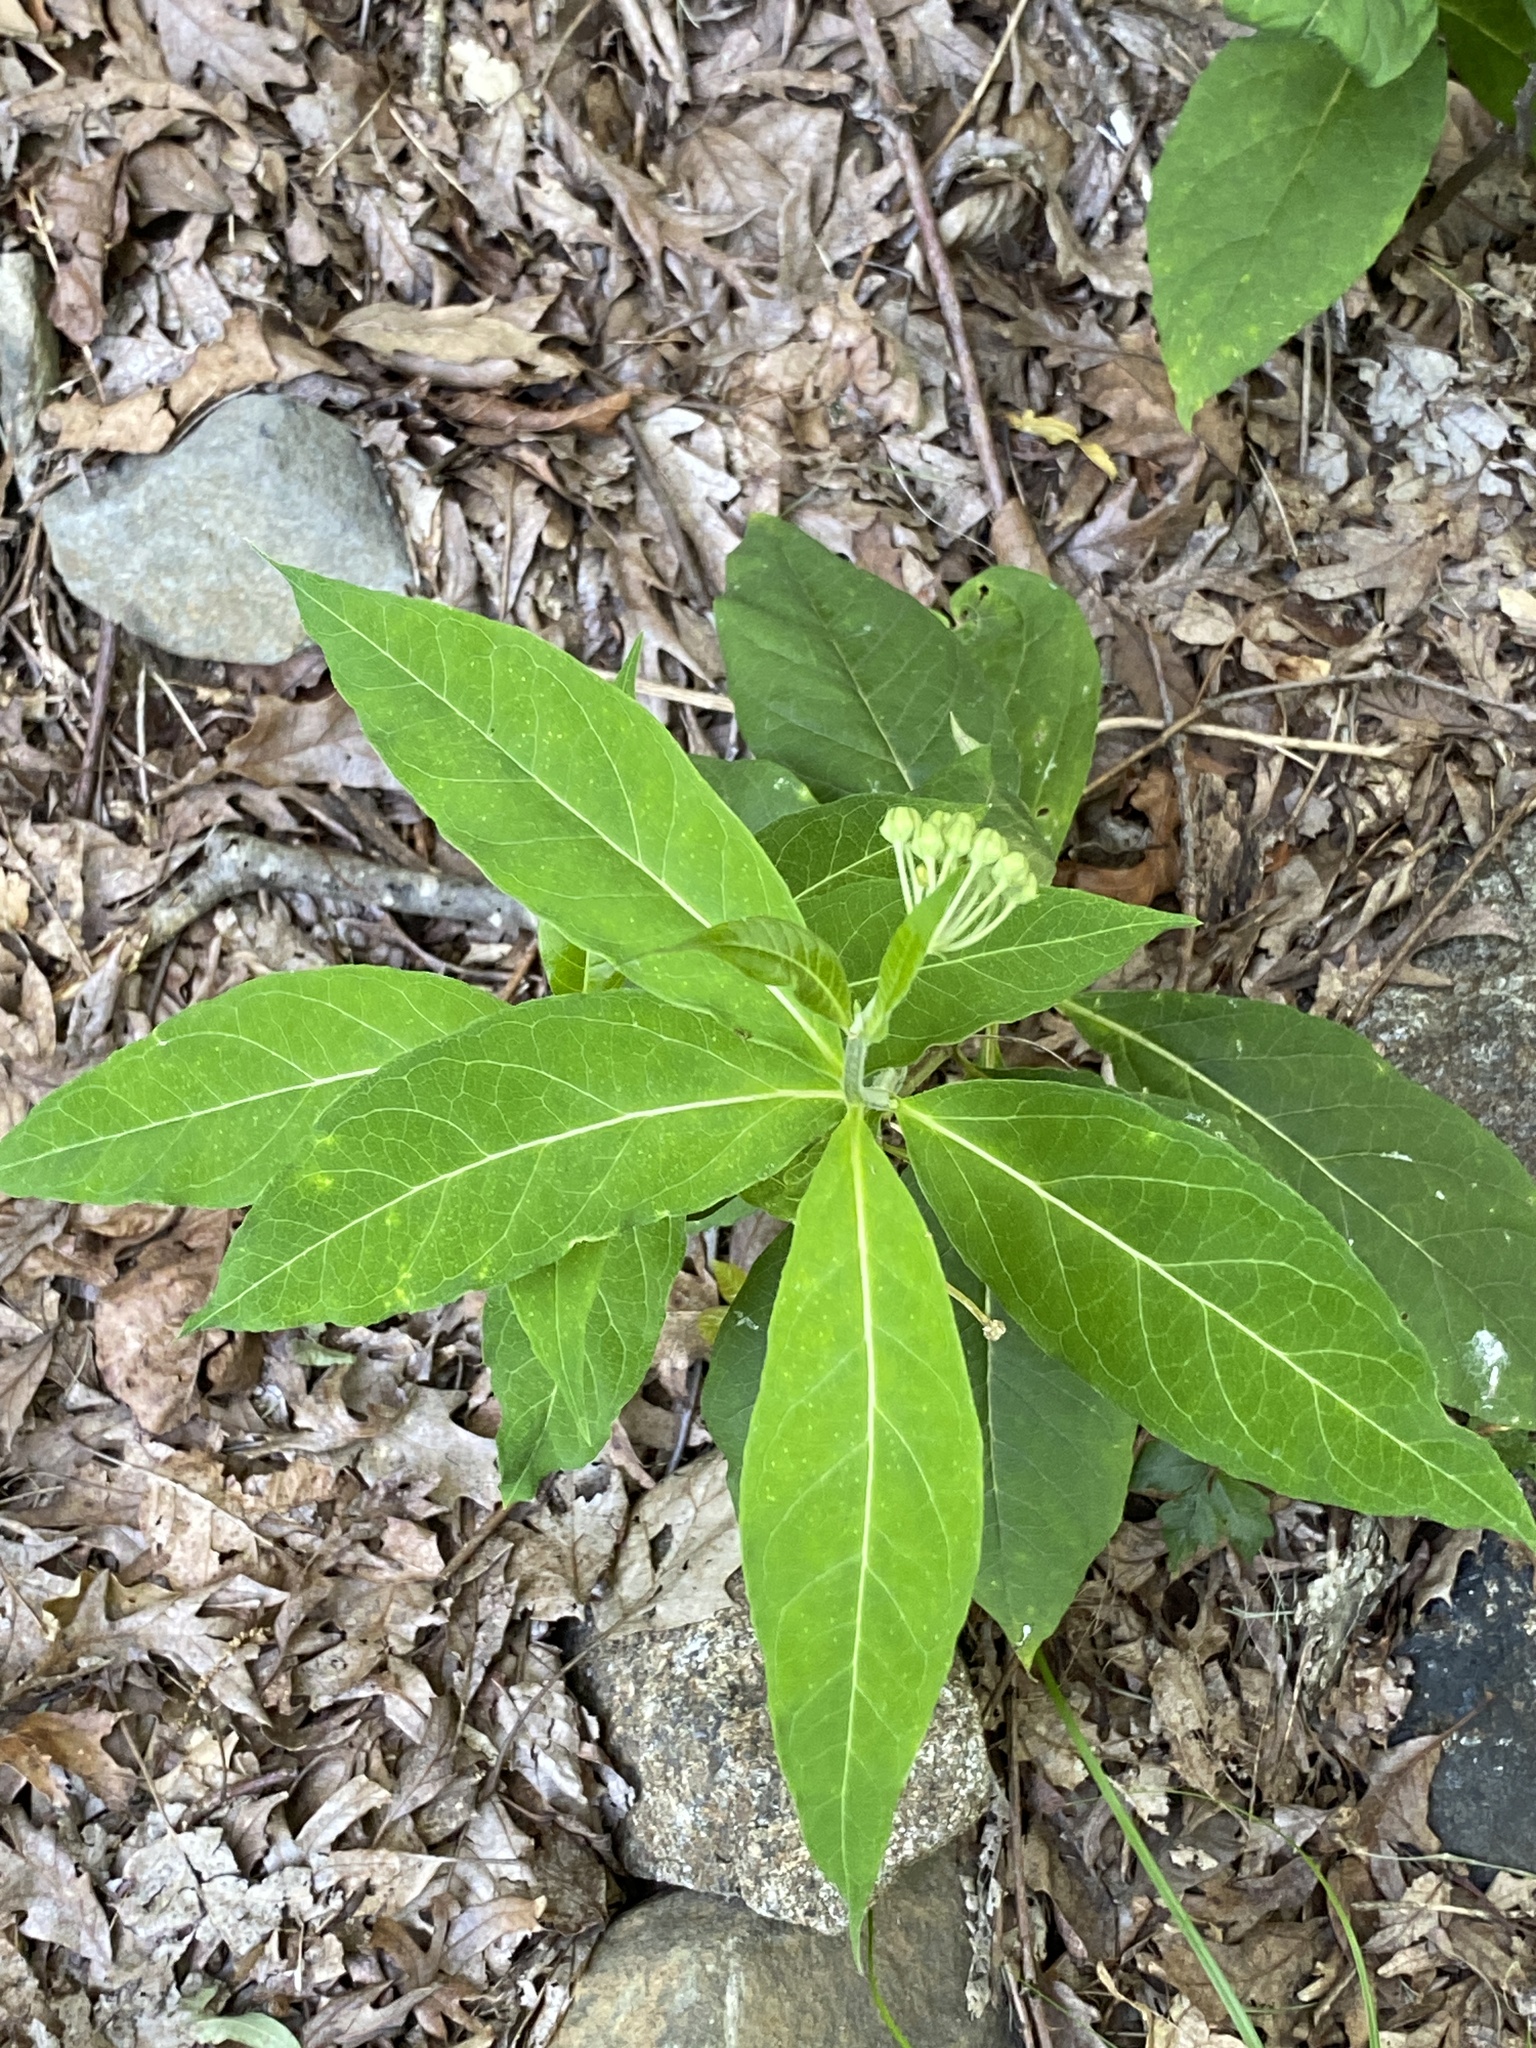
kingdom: Plantae
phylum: Tracheophyta
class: Magnoliopsida
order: Gentianales
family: Apocynaceae
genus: Asclepias
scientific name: Asclepias exaltata
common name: Poke milkweed
